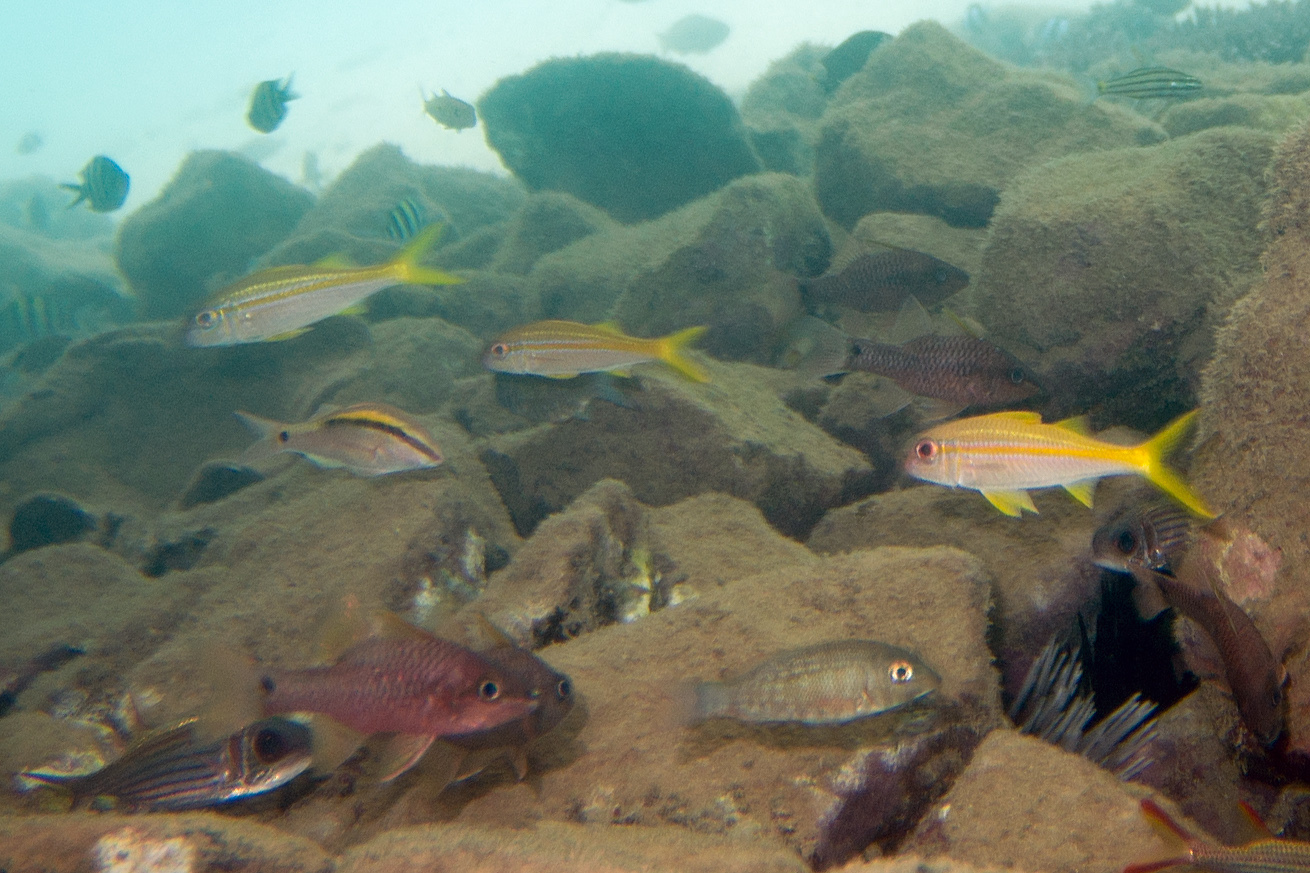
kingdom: Animalia
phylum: Chordata
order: Perciformes
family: Mullidae
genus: Mulloidichthys
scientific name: Mulloidichthys vanicolensis
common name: Yellowfin goatfish
